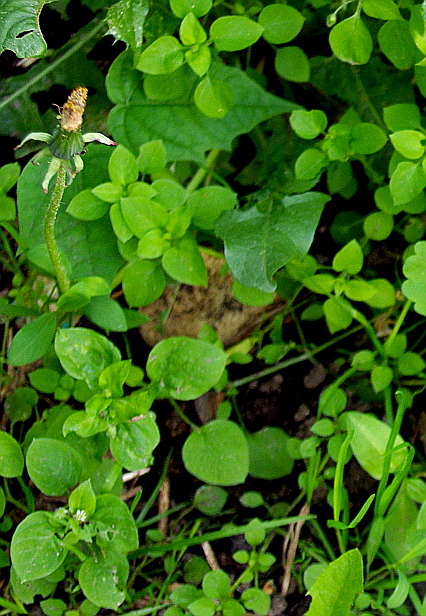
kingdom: Plantae
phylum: Tracheophyta
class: Magnoliopsida
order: Caryophyllales
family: Caryophyllaceae
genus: Stellaria
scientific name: Stellaria media
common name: Common chickweed
